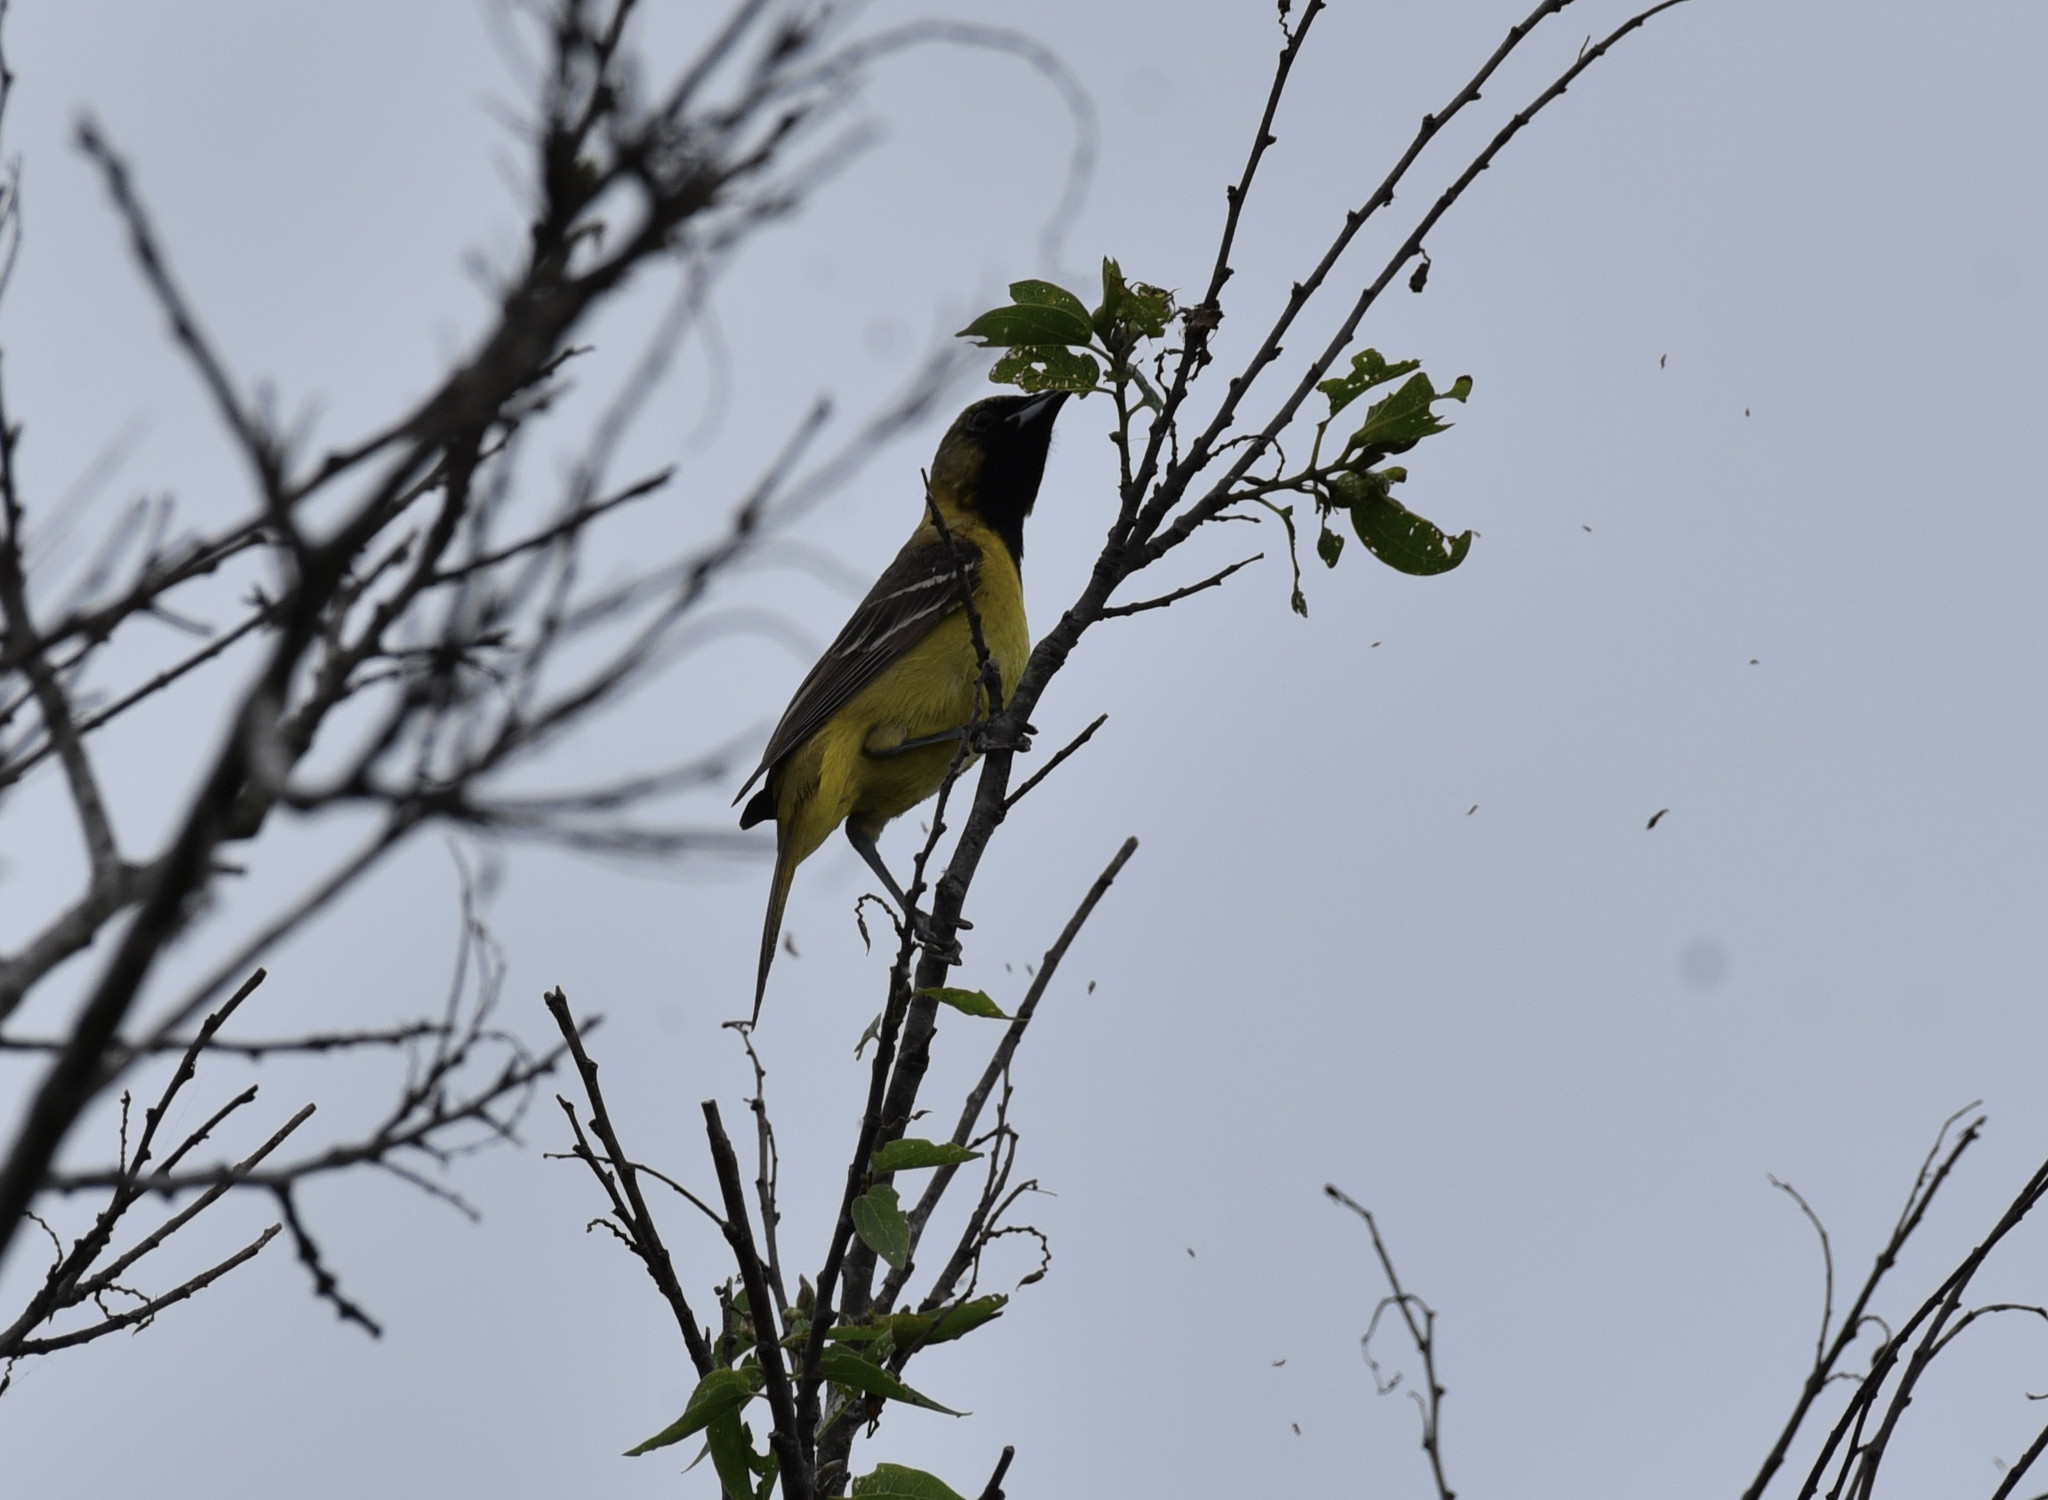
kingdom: Animalia
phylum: Chordata
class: Aves
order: Passeriformes
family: Icteridae
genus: Icterus
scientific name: Icterus graduacauda
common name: Audubon's oriole
